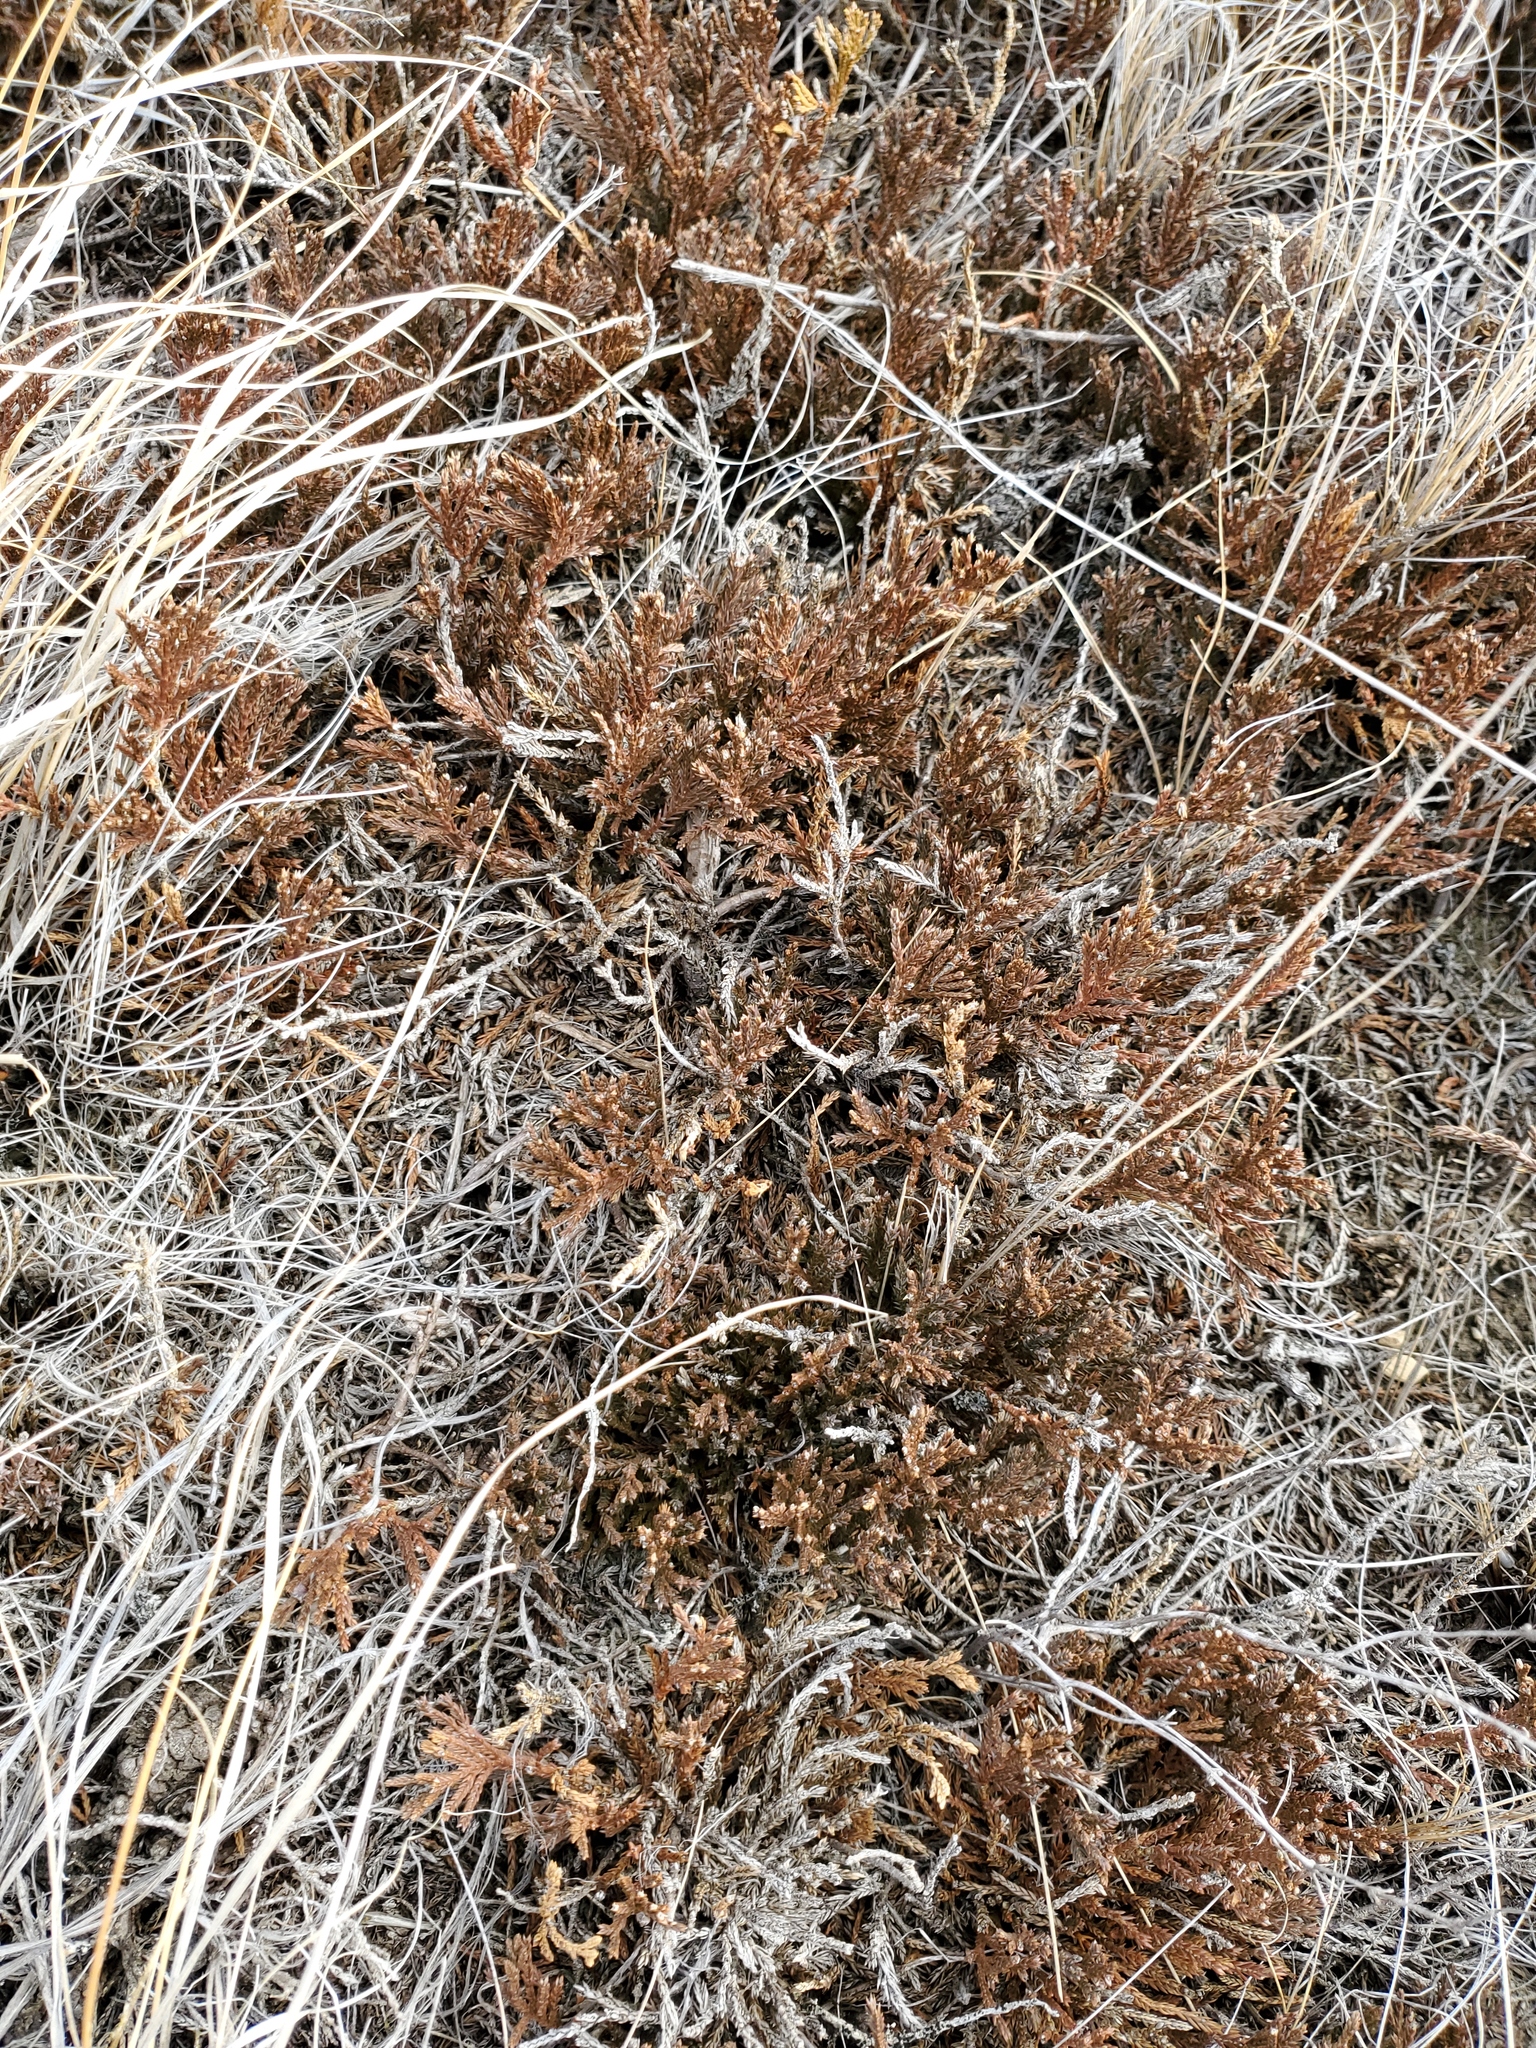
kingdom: Plantae
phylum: Tracheophyta
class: Pinopsida
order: Pinales
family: Cupressaceae
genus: Juniperus
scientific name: Juniperus horizontalis
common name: Creeping juniper
